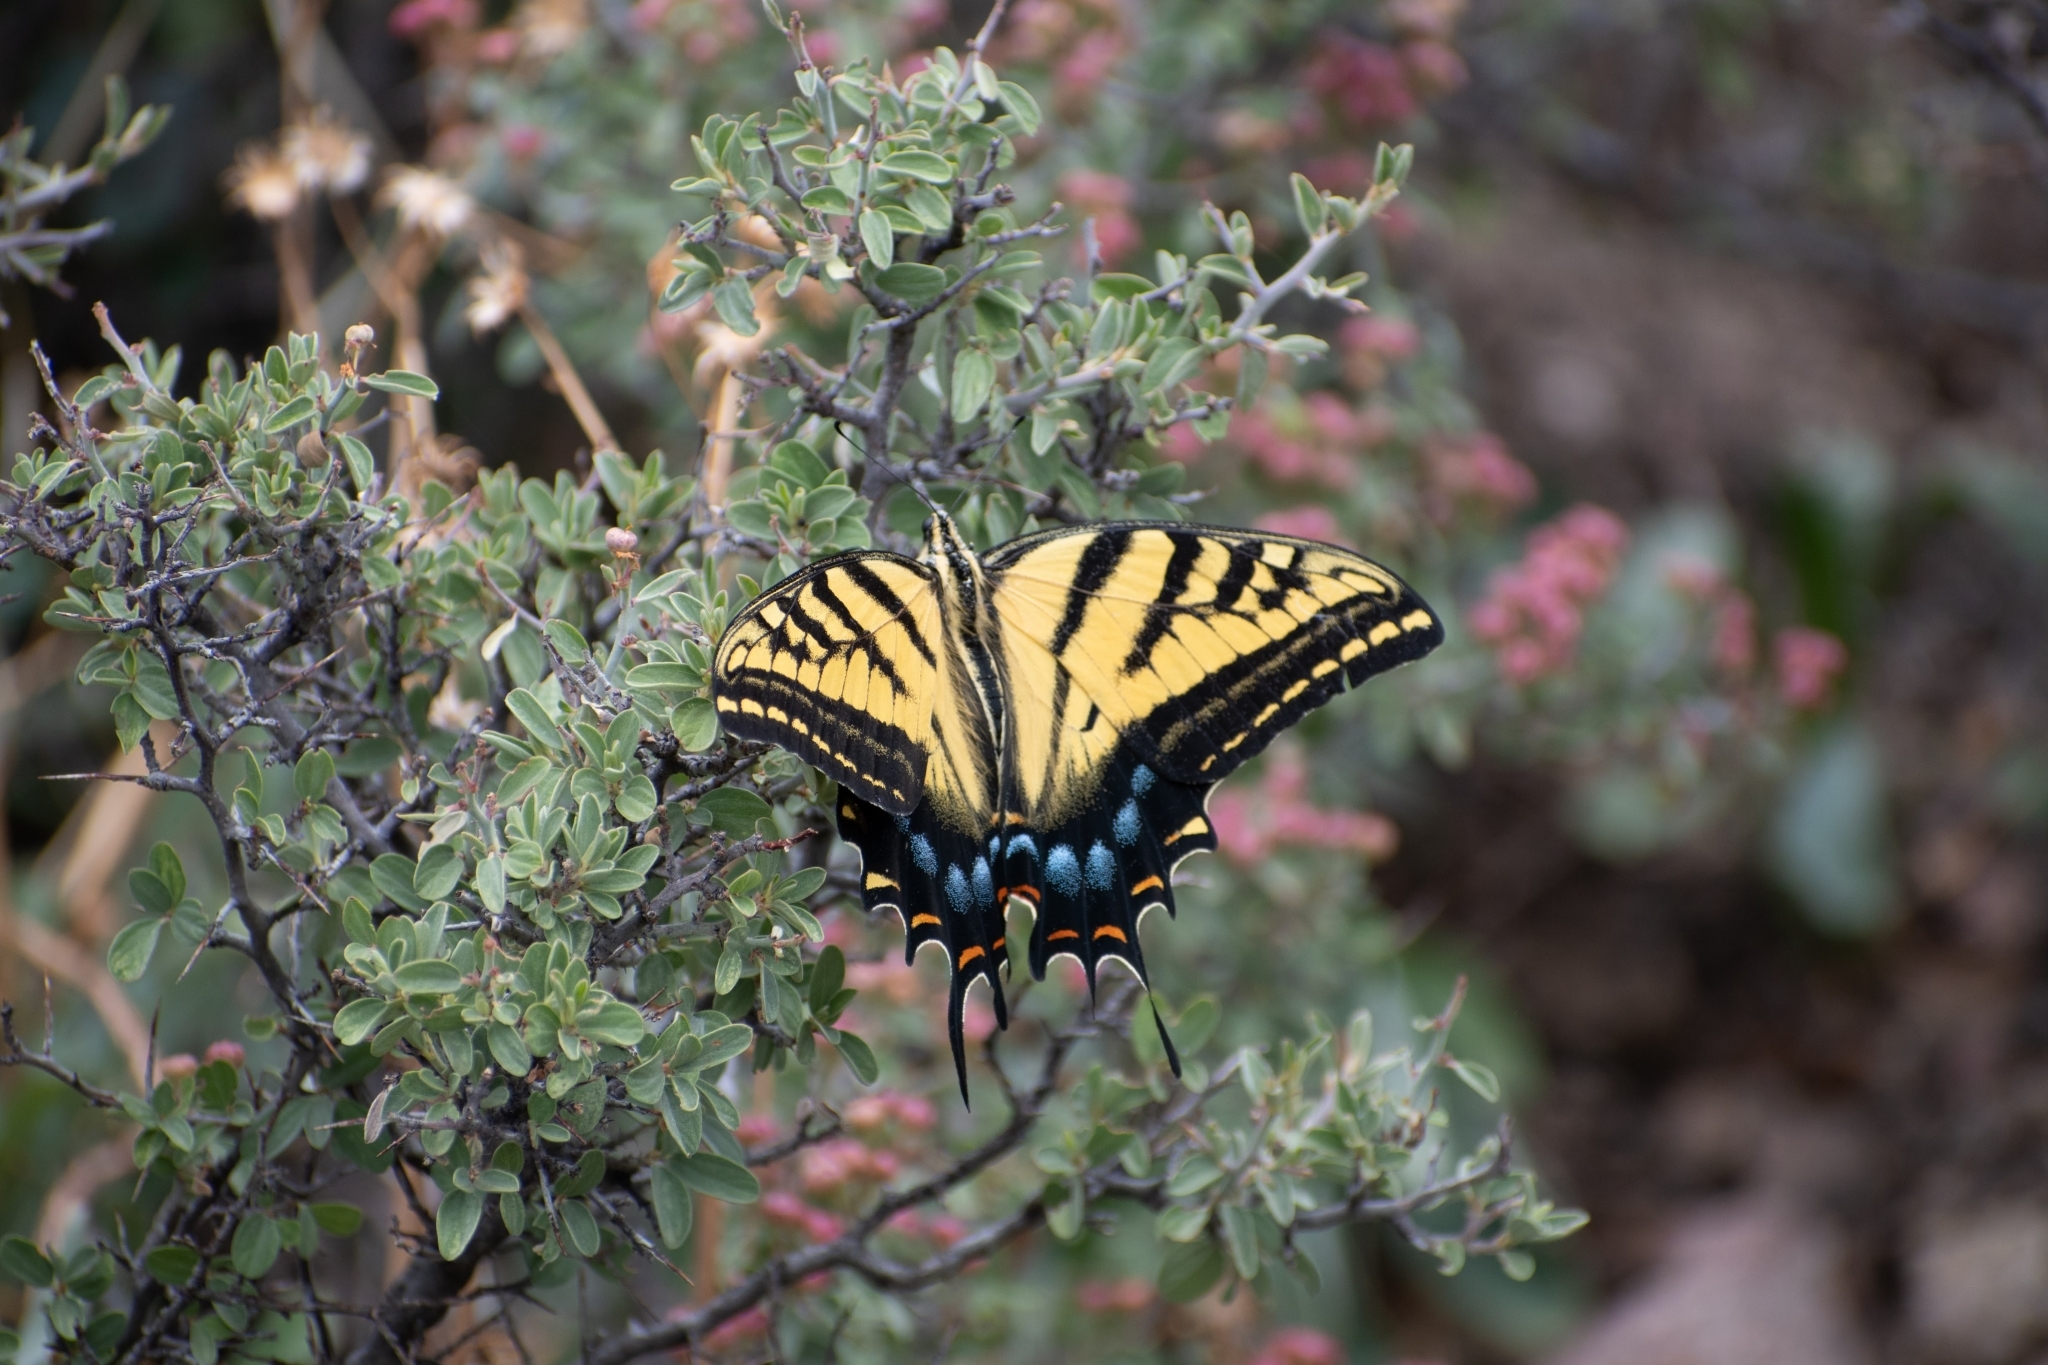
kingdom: Animalia
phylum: Arthropoda
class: Insecta
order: Lepidoptera
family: Papilionidae
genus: Papilio
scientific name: Papilio multicaudata
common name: Two-tailed tiger swallowtail
